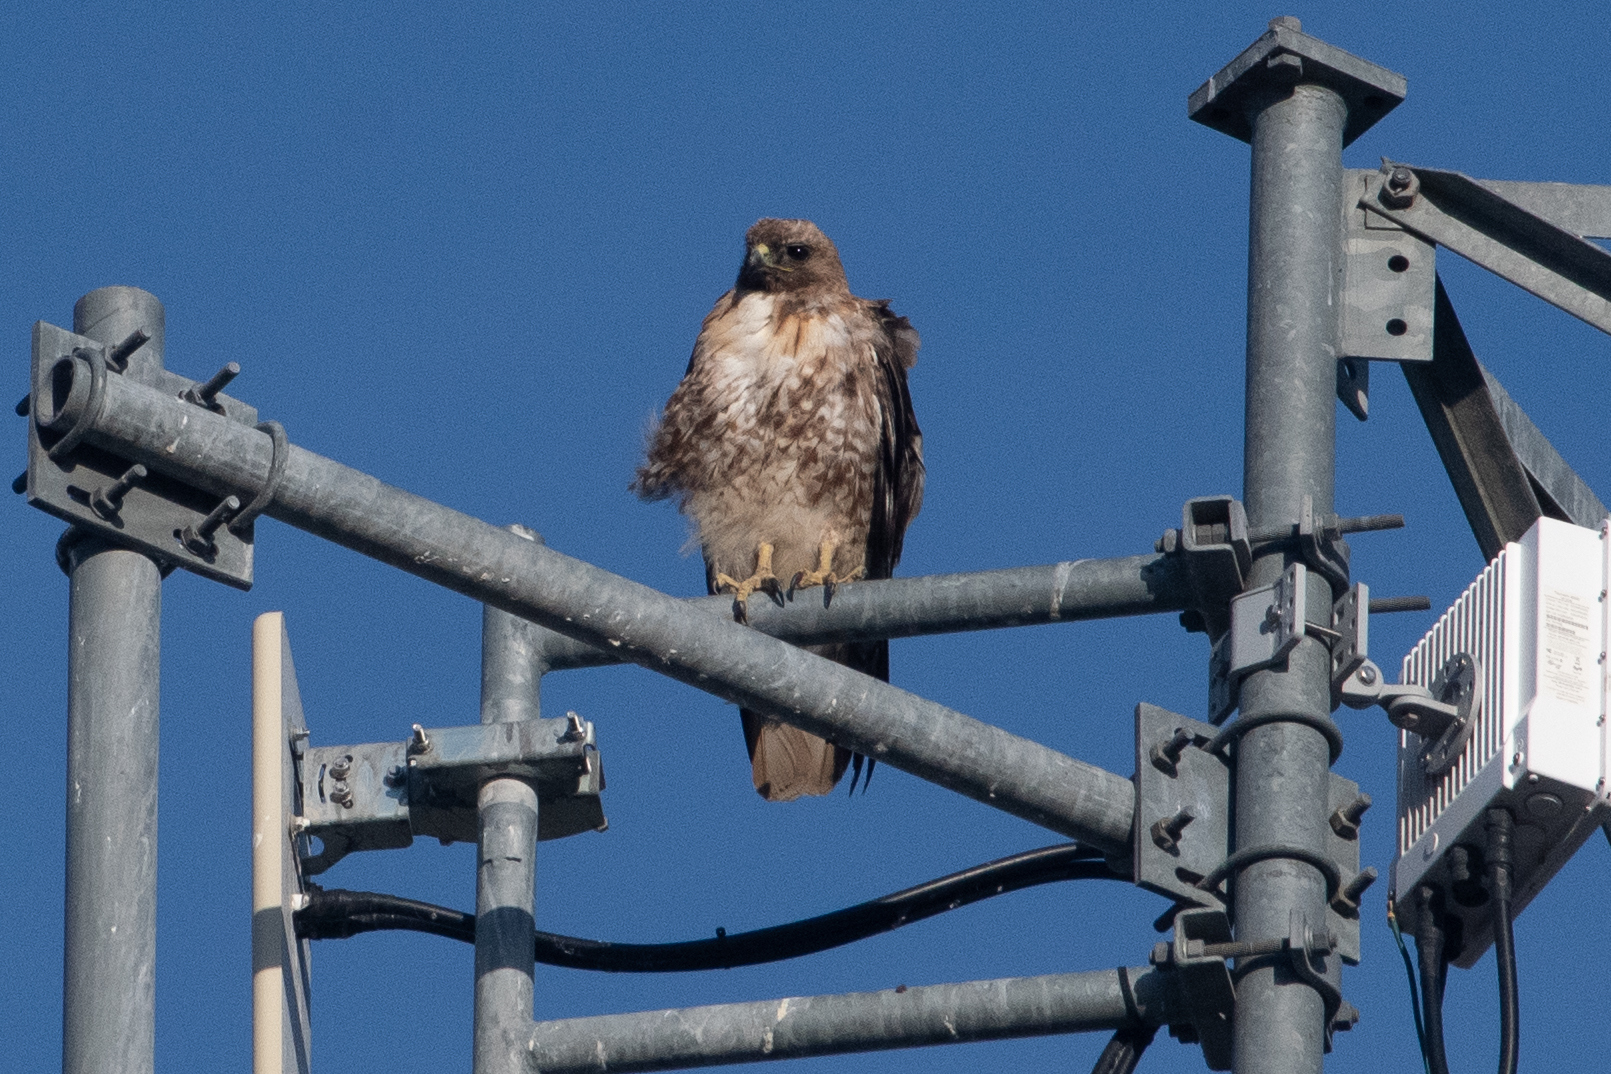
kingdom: Animalia
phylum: Chordata
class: Aves
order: Accipitriformes
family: Accipitridae
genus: Buteo
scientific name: Buteo jamaicensis
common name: Red-tailed hawk
